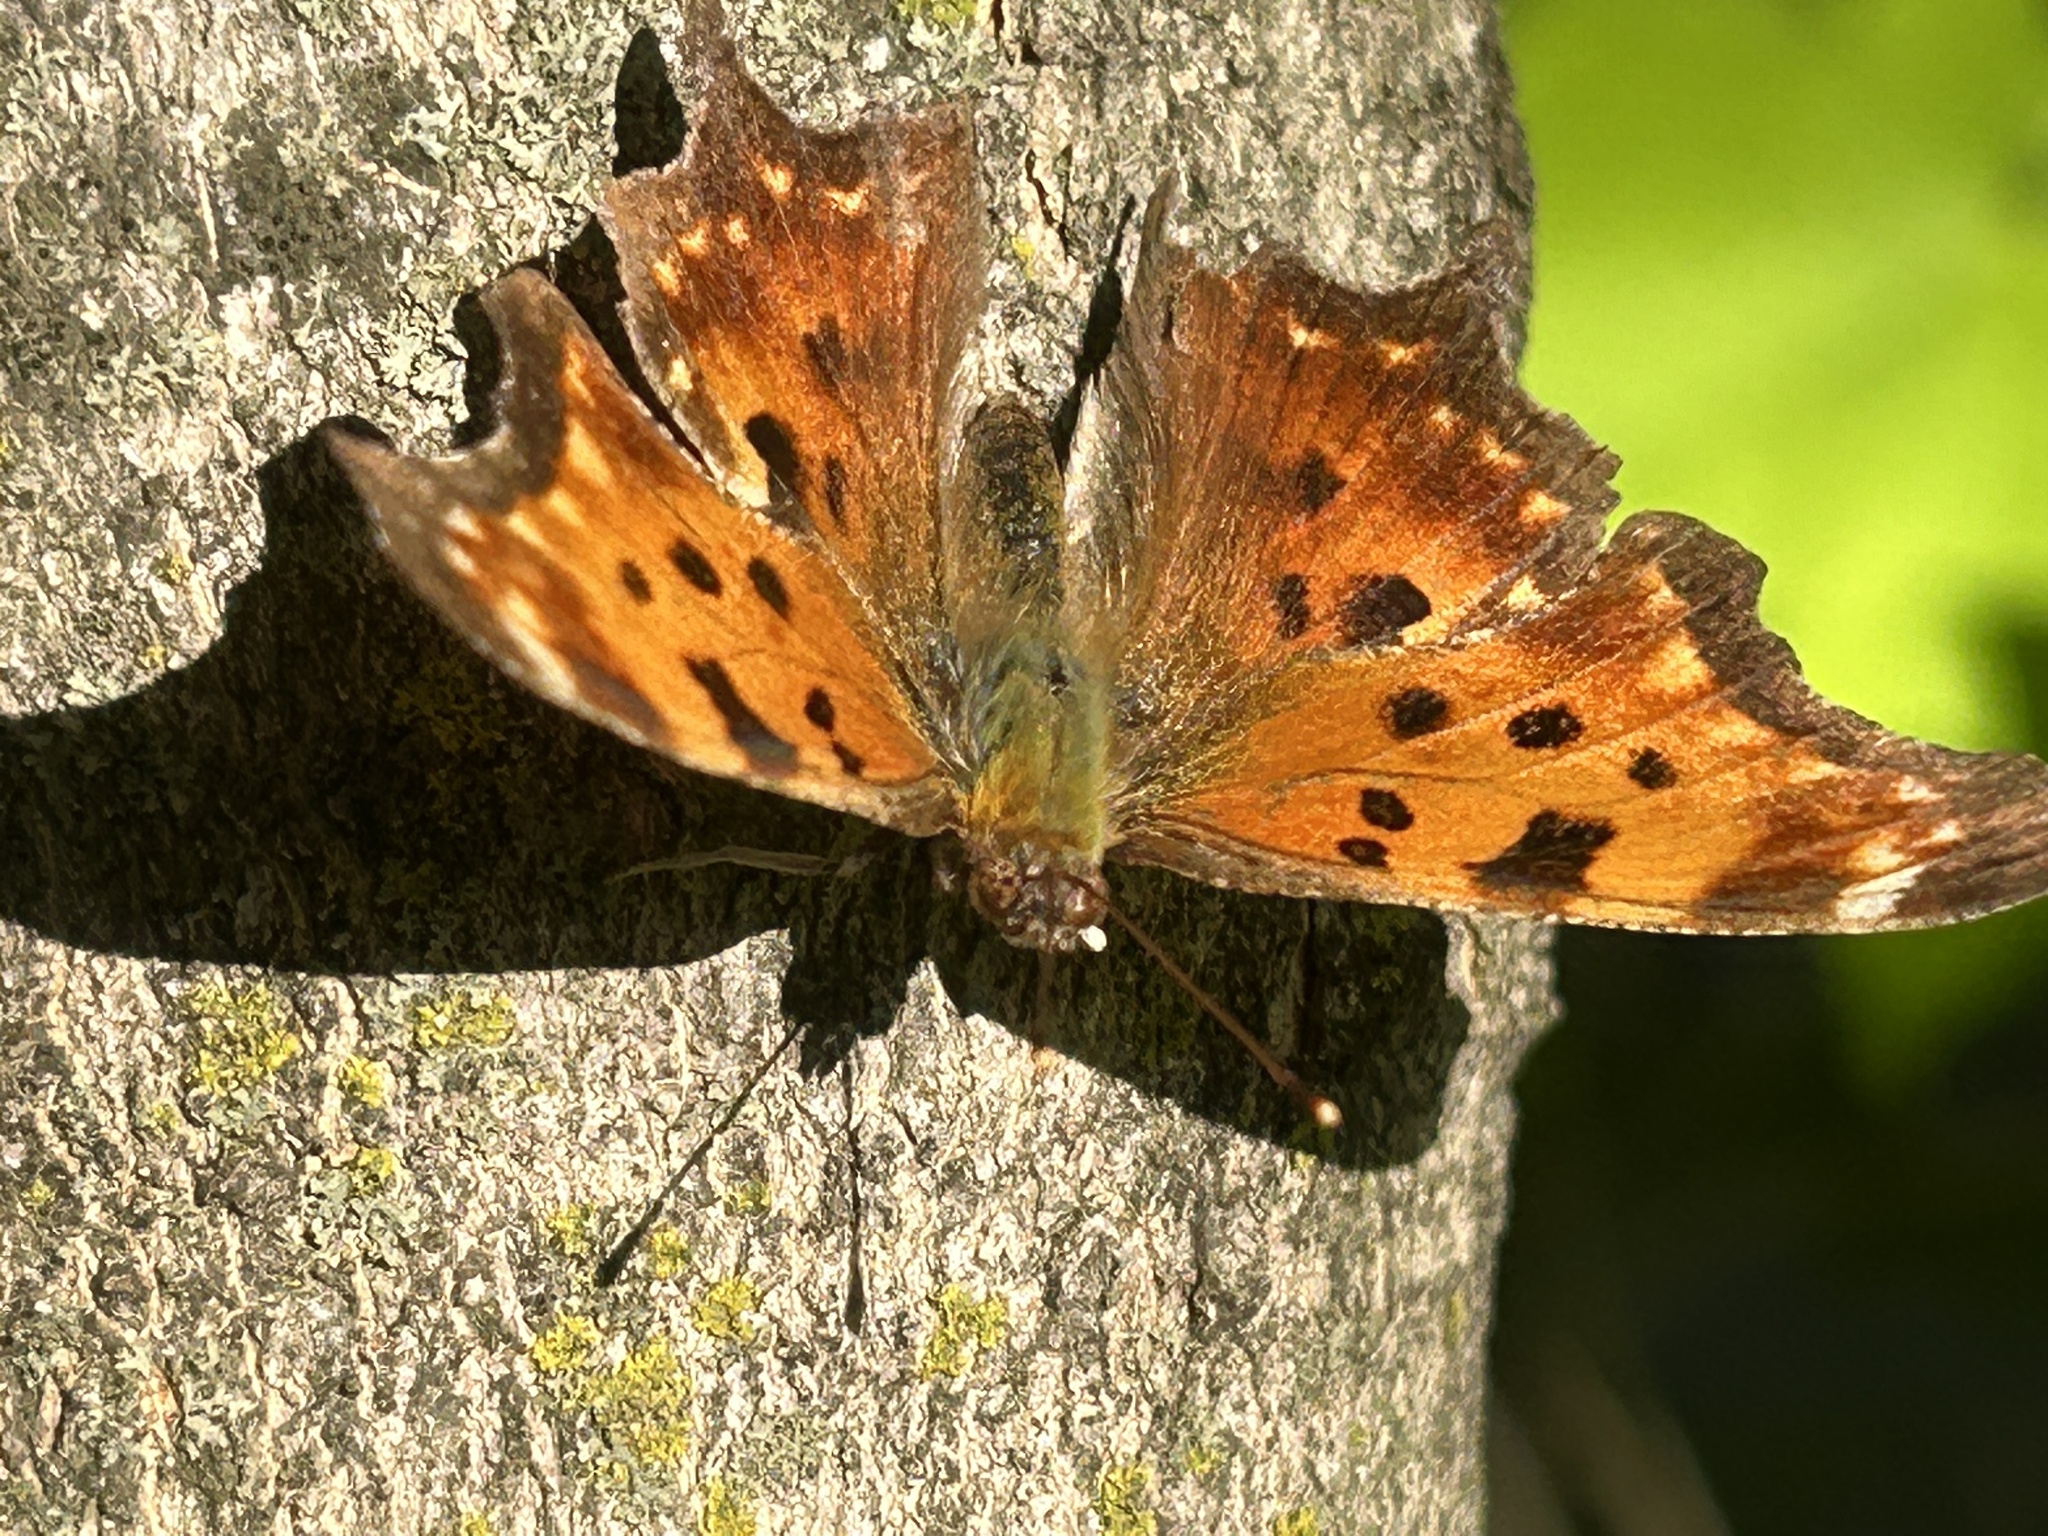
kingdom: Animalia
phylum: Arthropoda
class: Insecta
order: Lepidoptera
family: Nymphalidae
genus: Polygonia
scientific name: Polygonia comma
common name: Eastern comma
